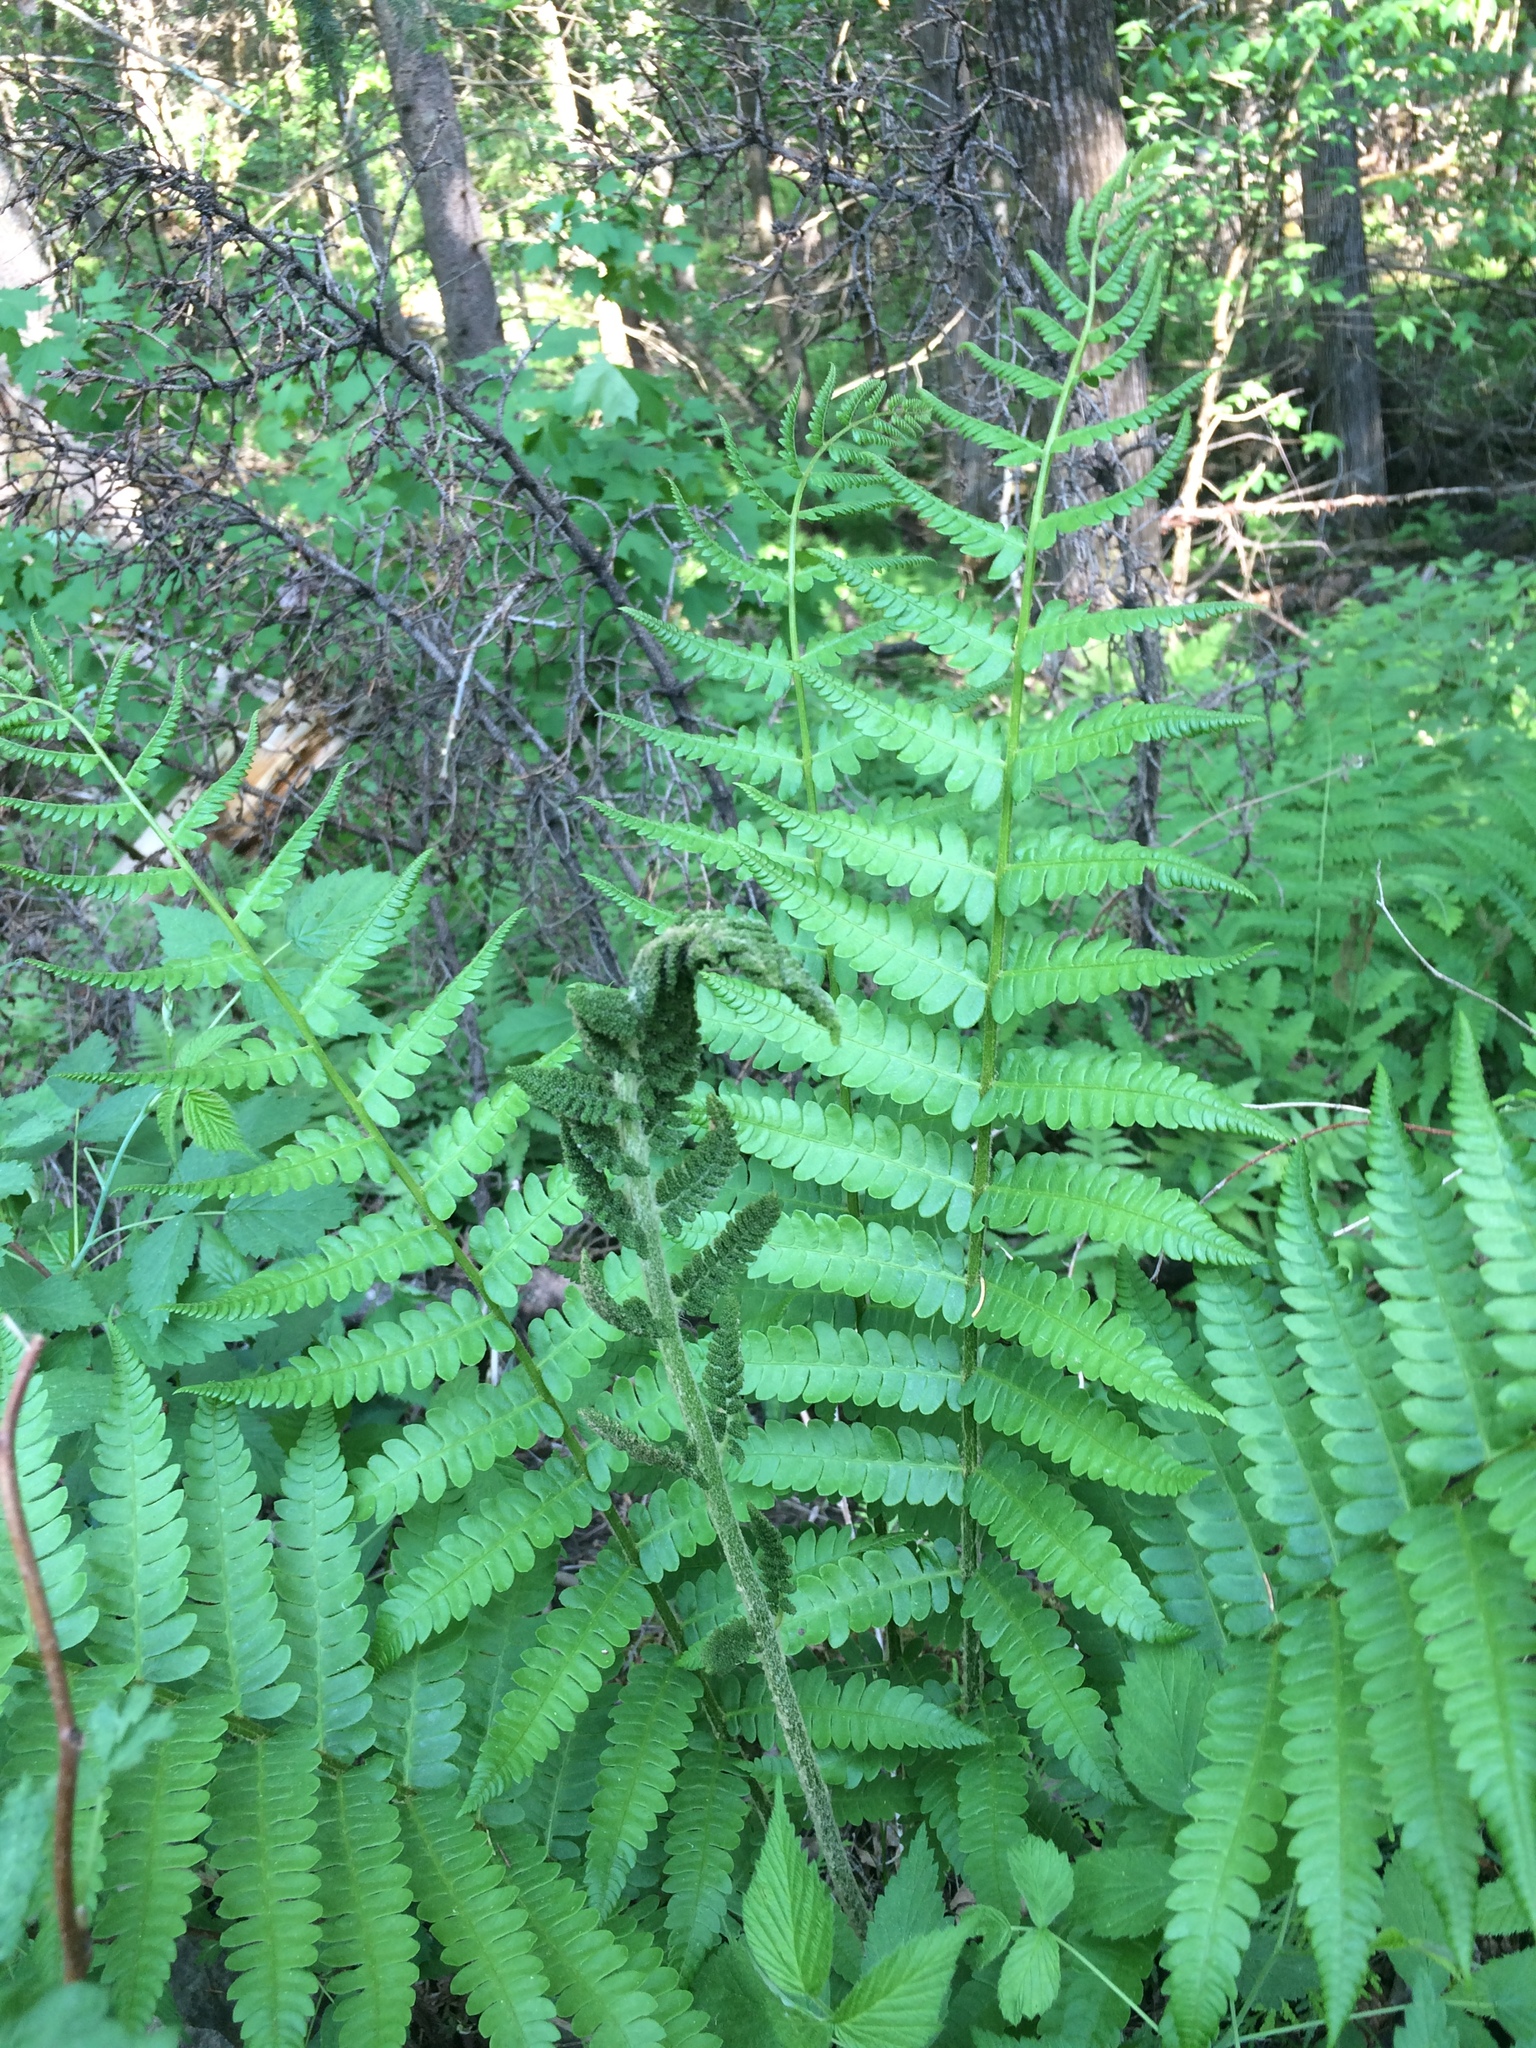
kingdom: Plantae
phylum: Tracheophyta
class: Polypodiopsida
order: Osmundales
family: Osmundaceae
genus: Osmundastrum
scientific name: Osmundastrum cinnamomeum
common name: Cinnamon fern
